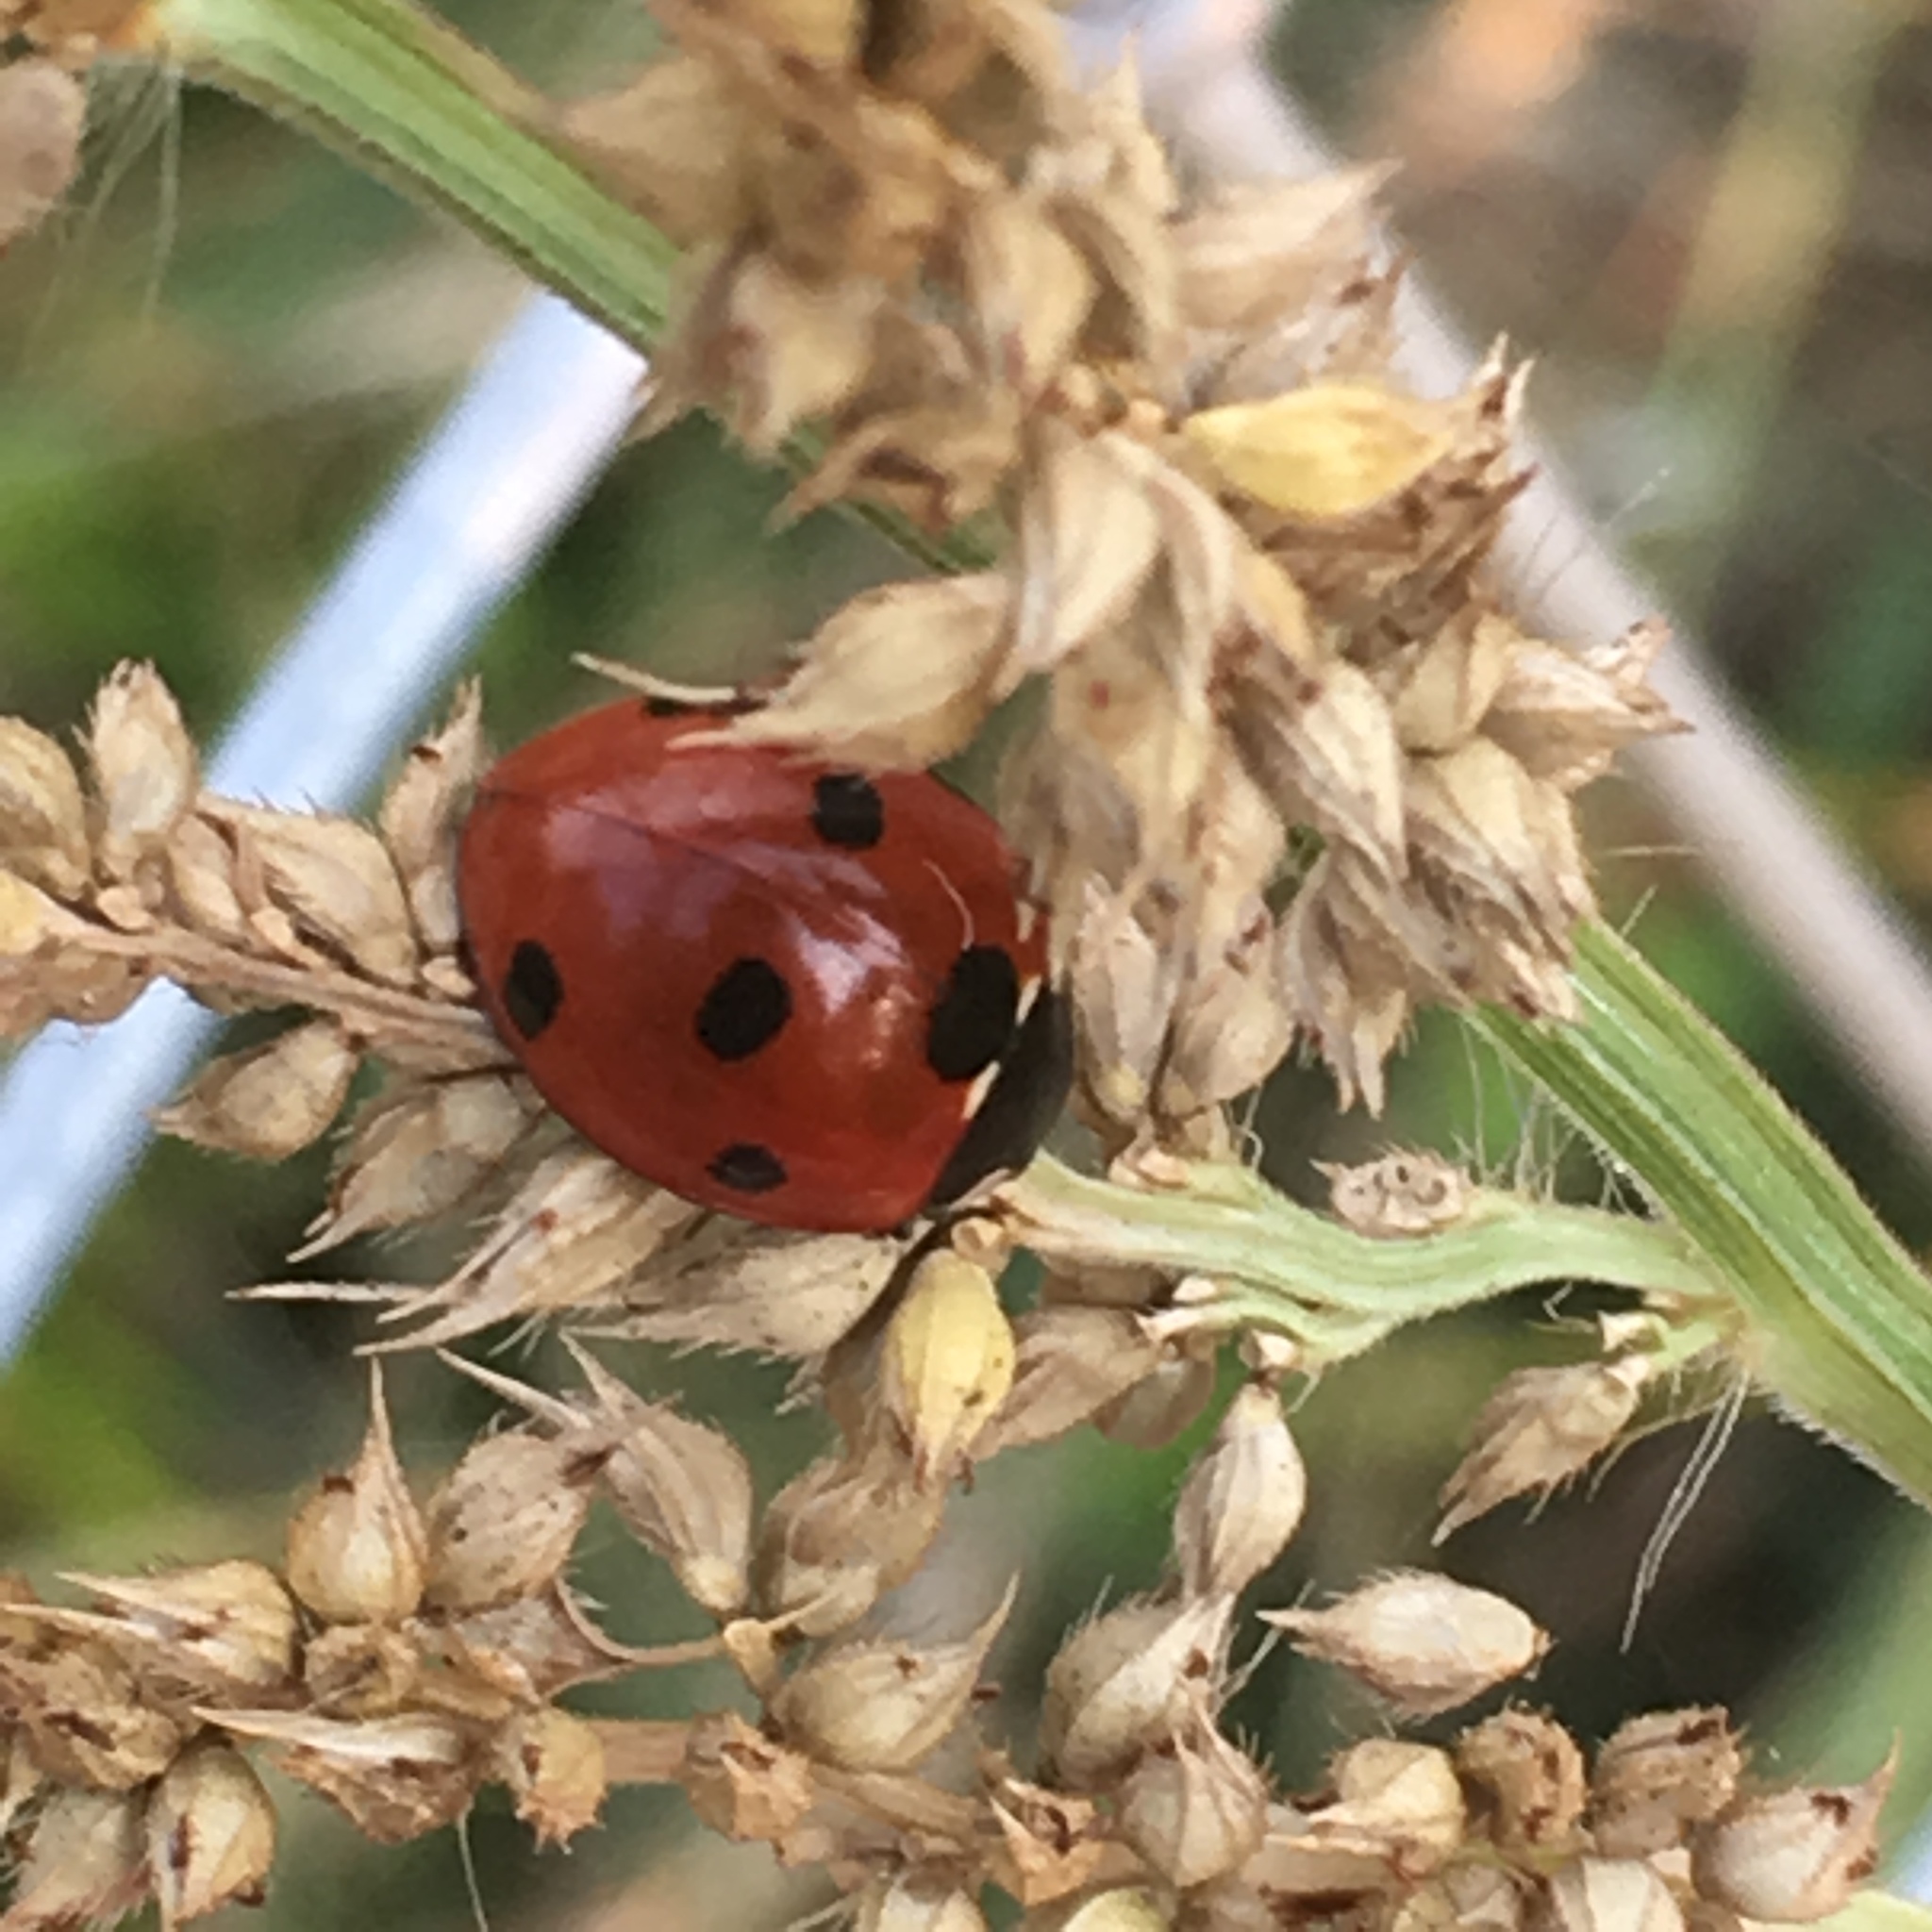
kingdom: Animalia
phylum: Arthropoda
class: Insecta
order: Coleoptera
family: Coccinellidae
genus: Coccinella
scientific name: Coccinella septempunctata
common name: Sevenspotted lady beetle
